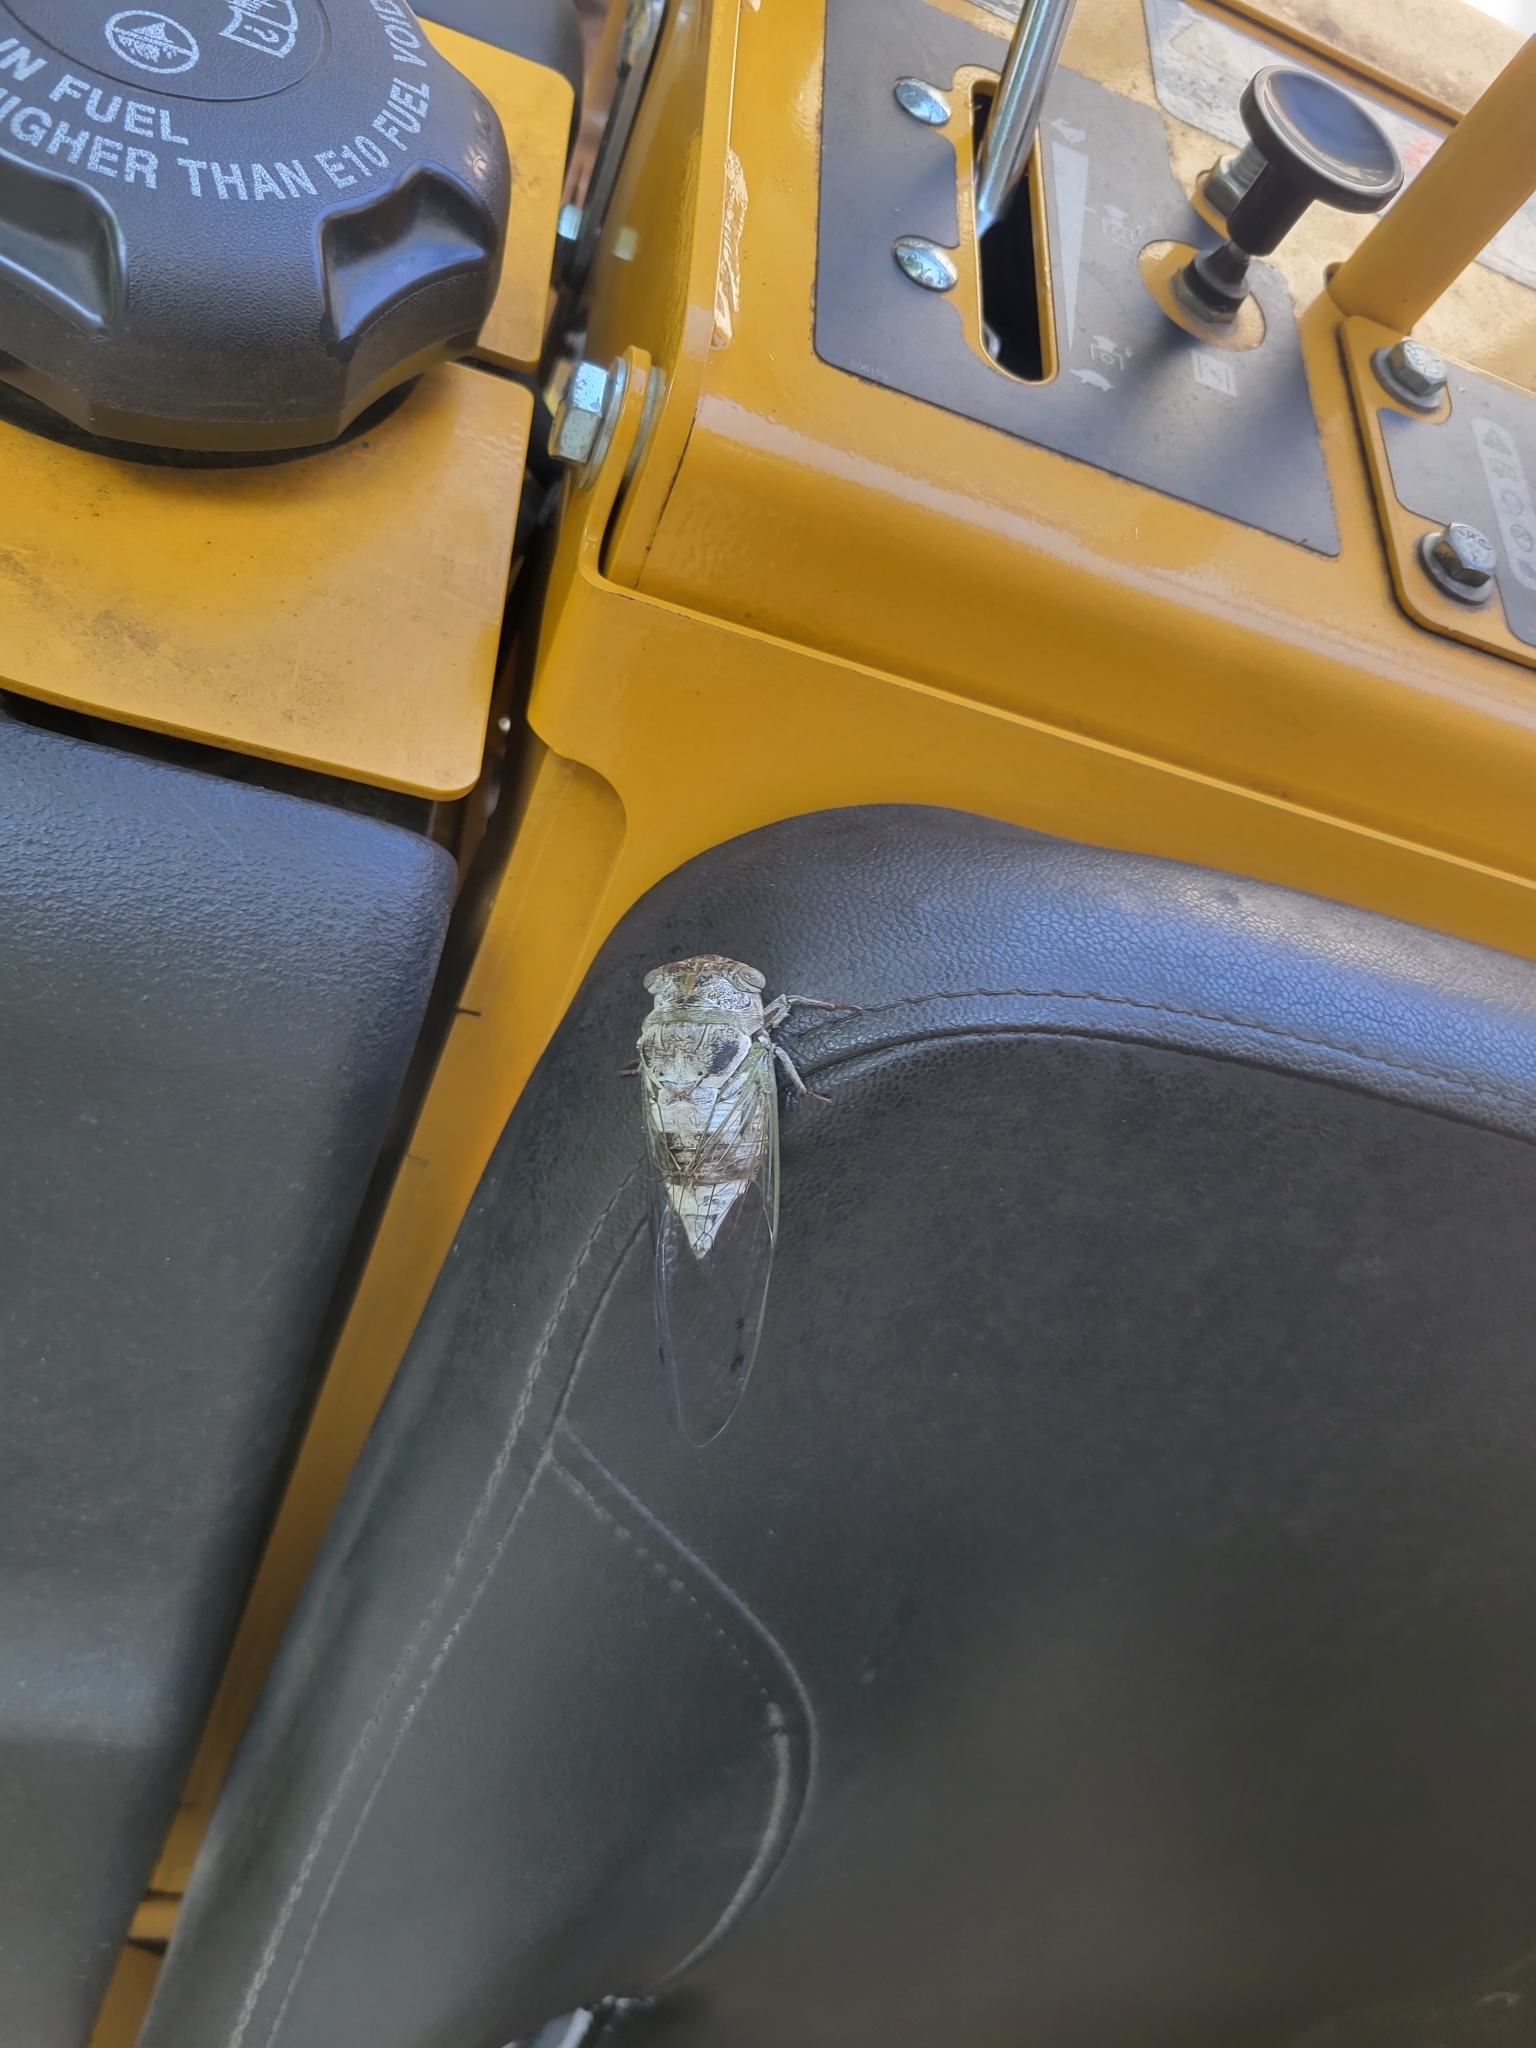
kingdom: Animalia
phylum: Arthropoda
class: Insecta
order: Hemiptera
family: Cicadidae
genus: Diceroprocta
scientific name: Diceroprocta grossa
